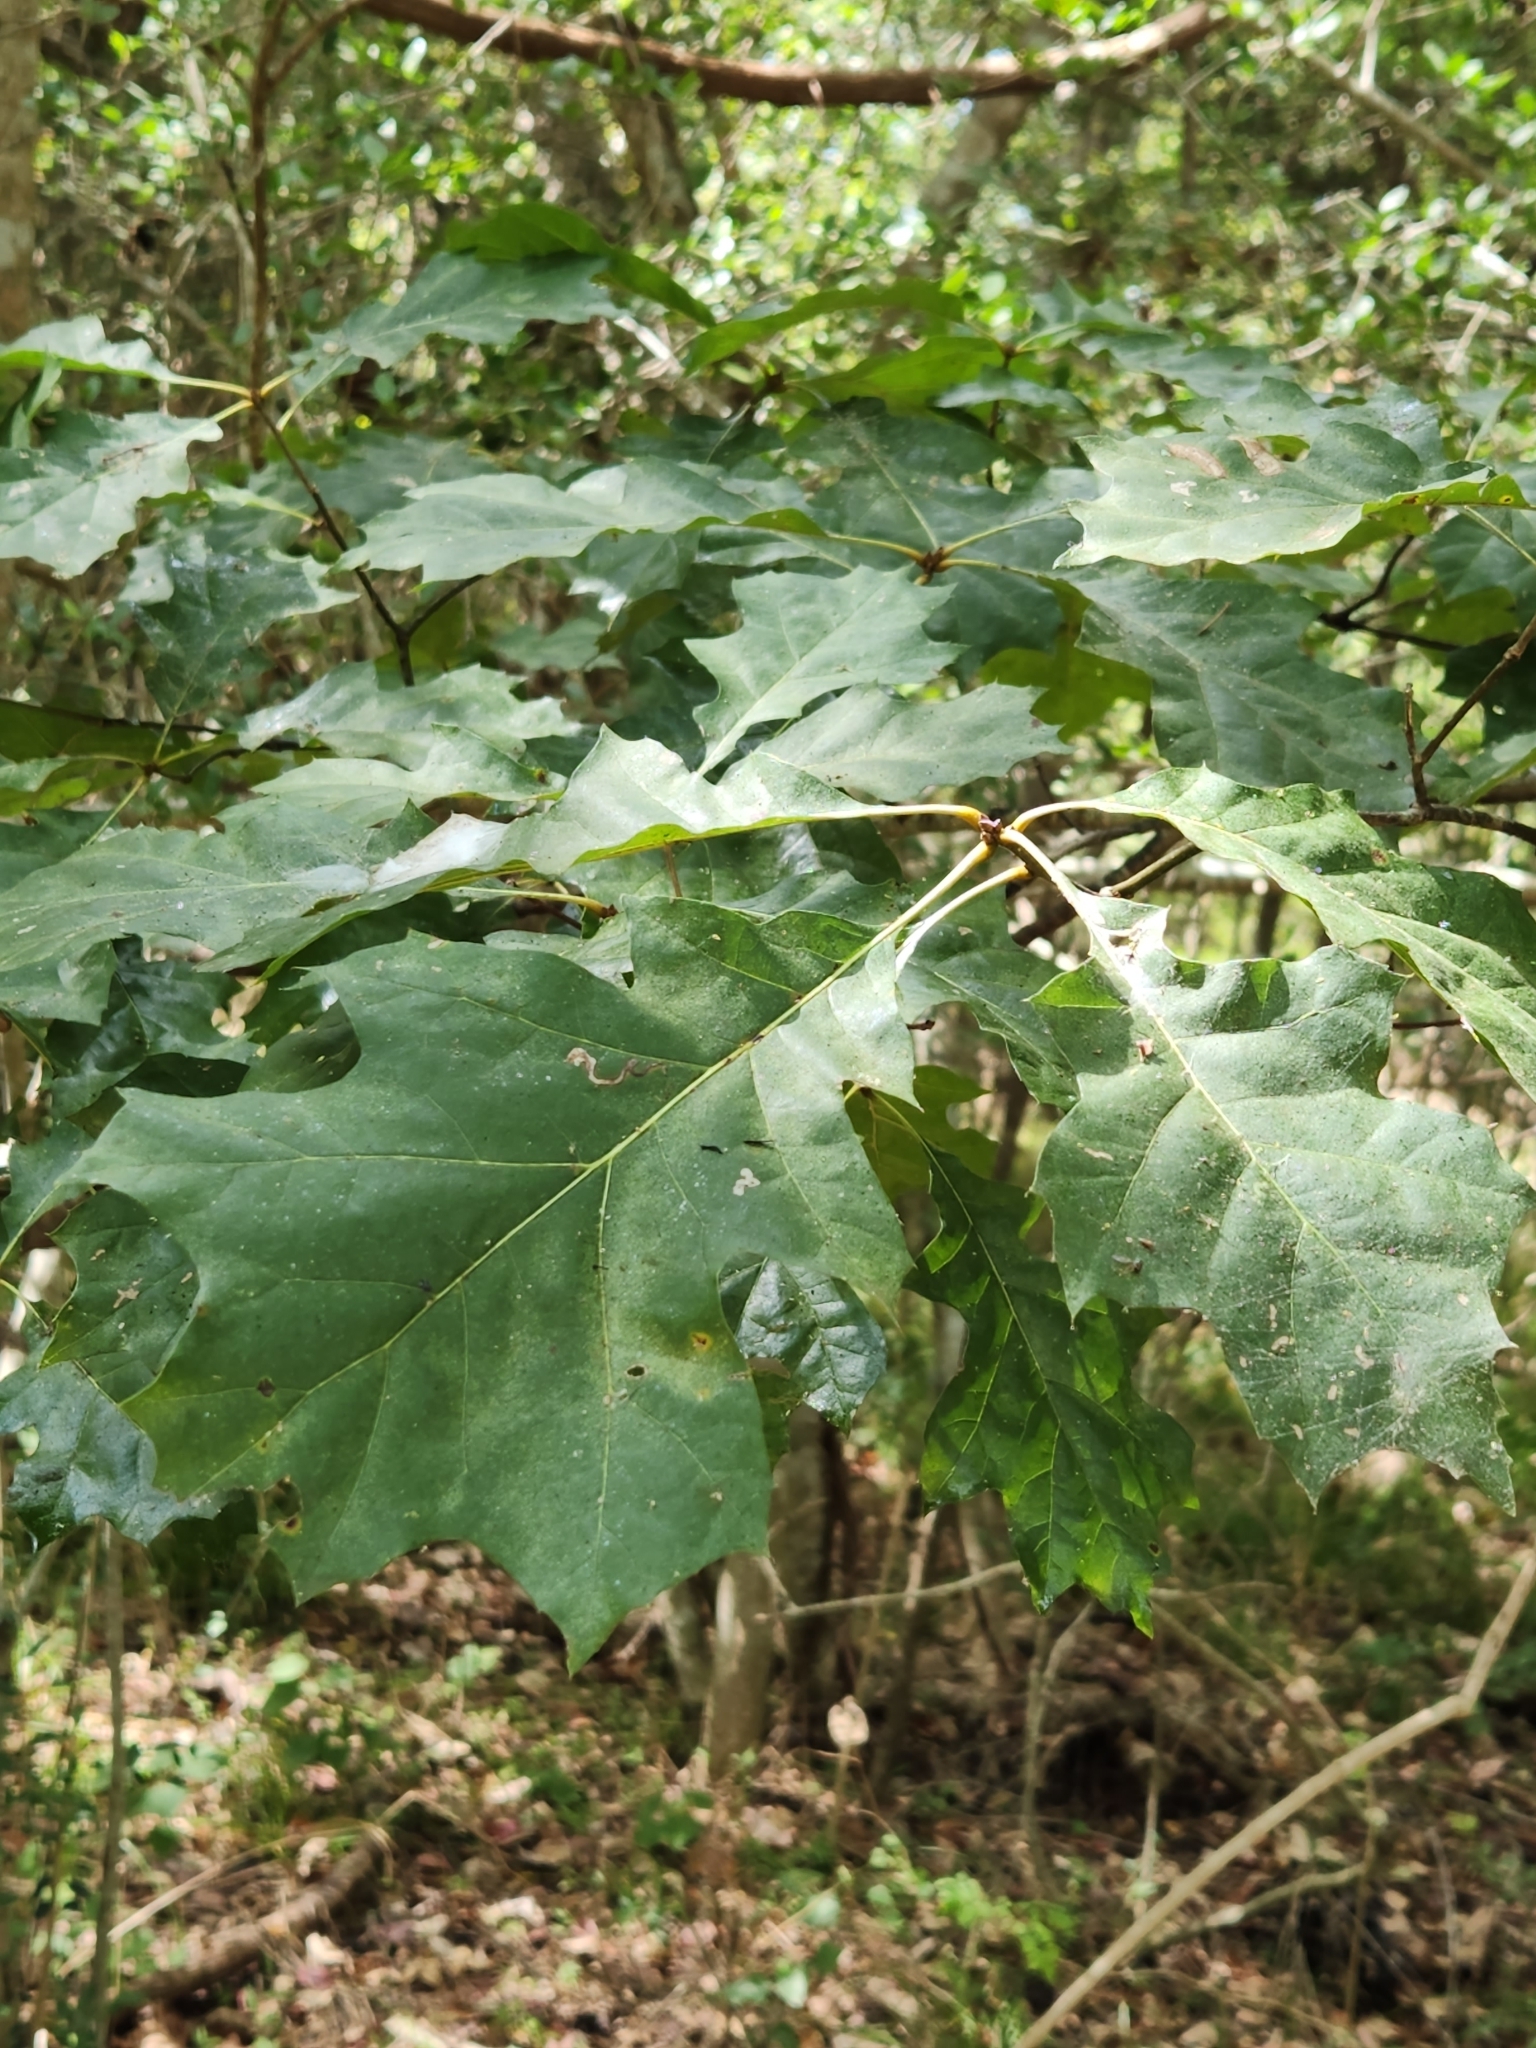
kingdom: Plantae
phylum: Tracheophyta
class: Magnoliopsida
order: Fagales
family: Fagaceae
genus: Quercus
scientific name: Quercus shumardii
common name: Shumard oak
